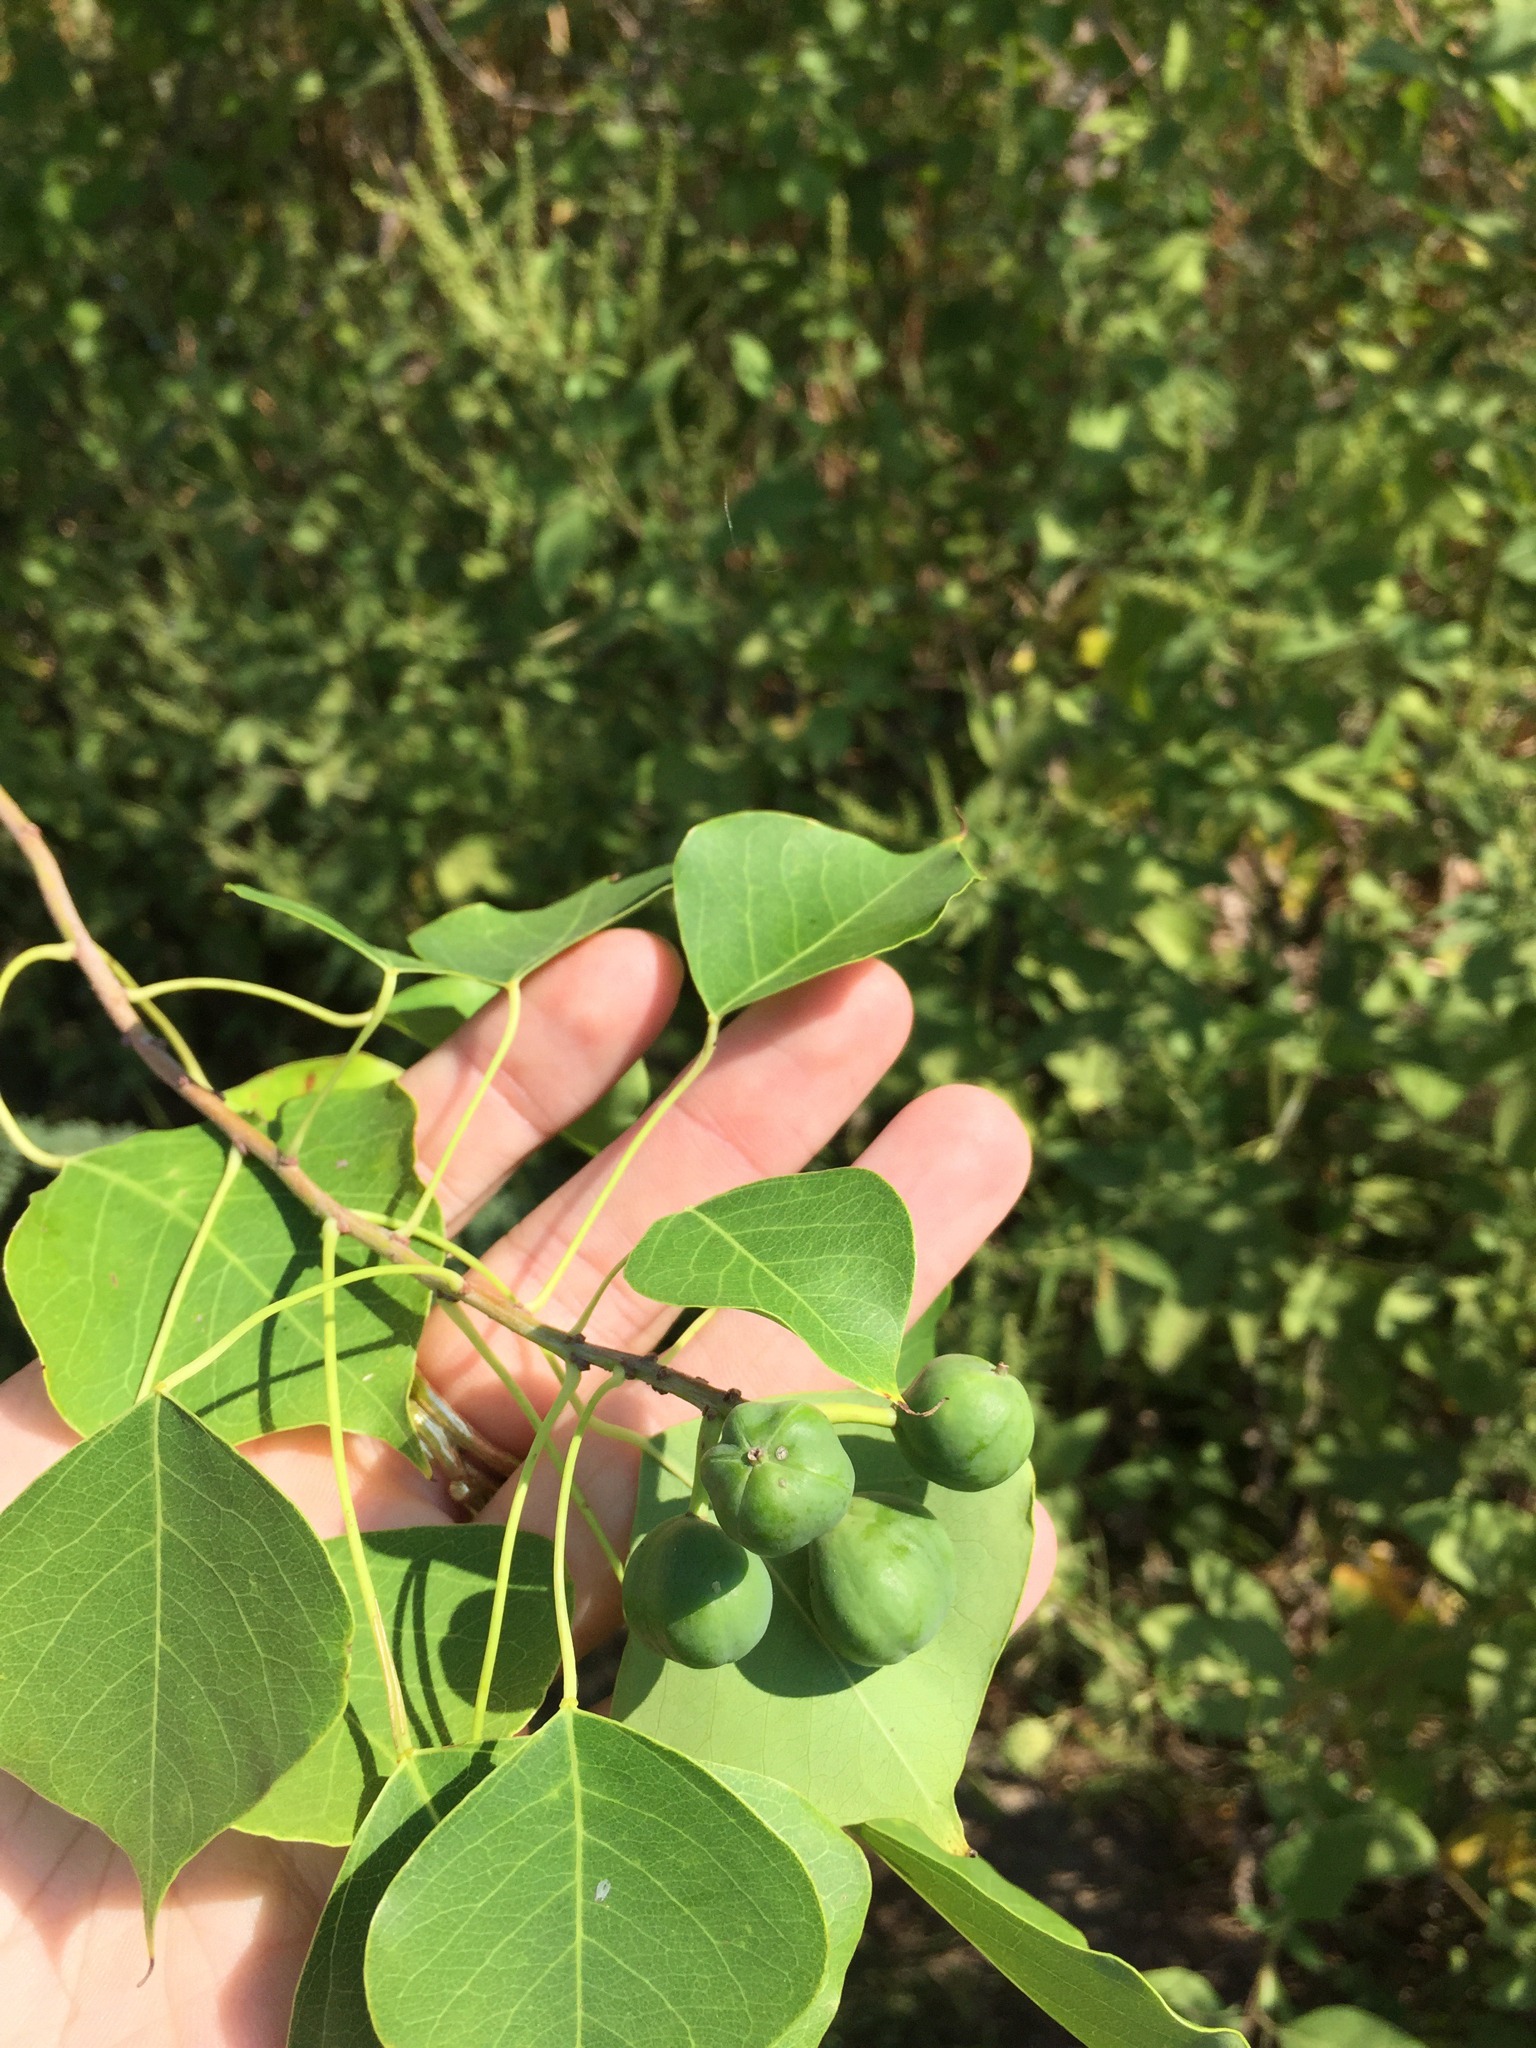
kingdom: Plantae
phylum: Tracheophyta
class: Magnoliopsida
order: Malpighiales
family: Euphorbiaceae
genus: Triadica
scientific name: Triadica sebifera
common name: Chinese tallow
